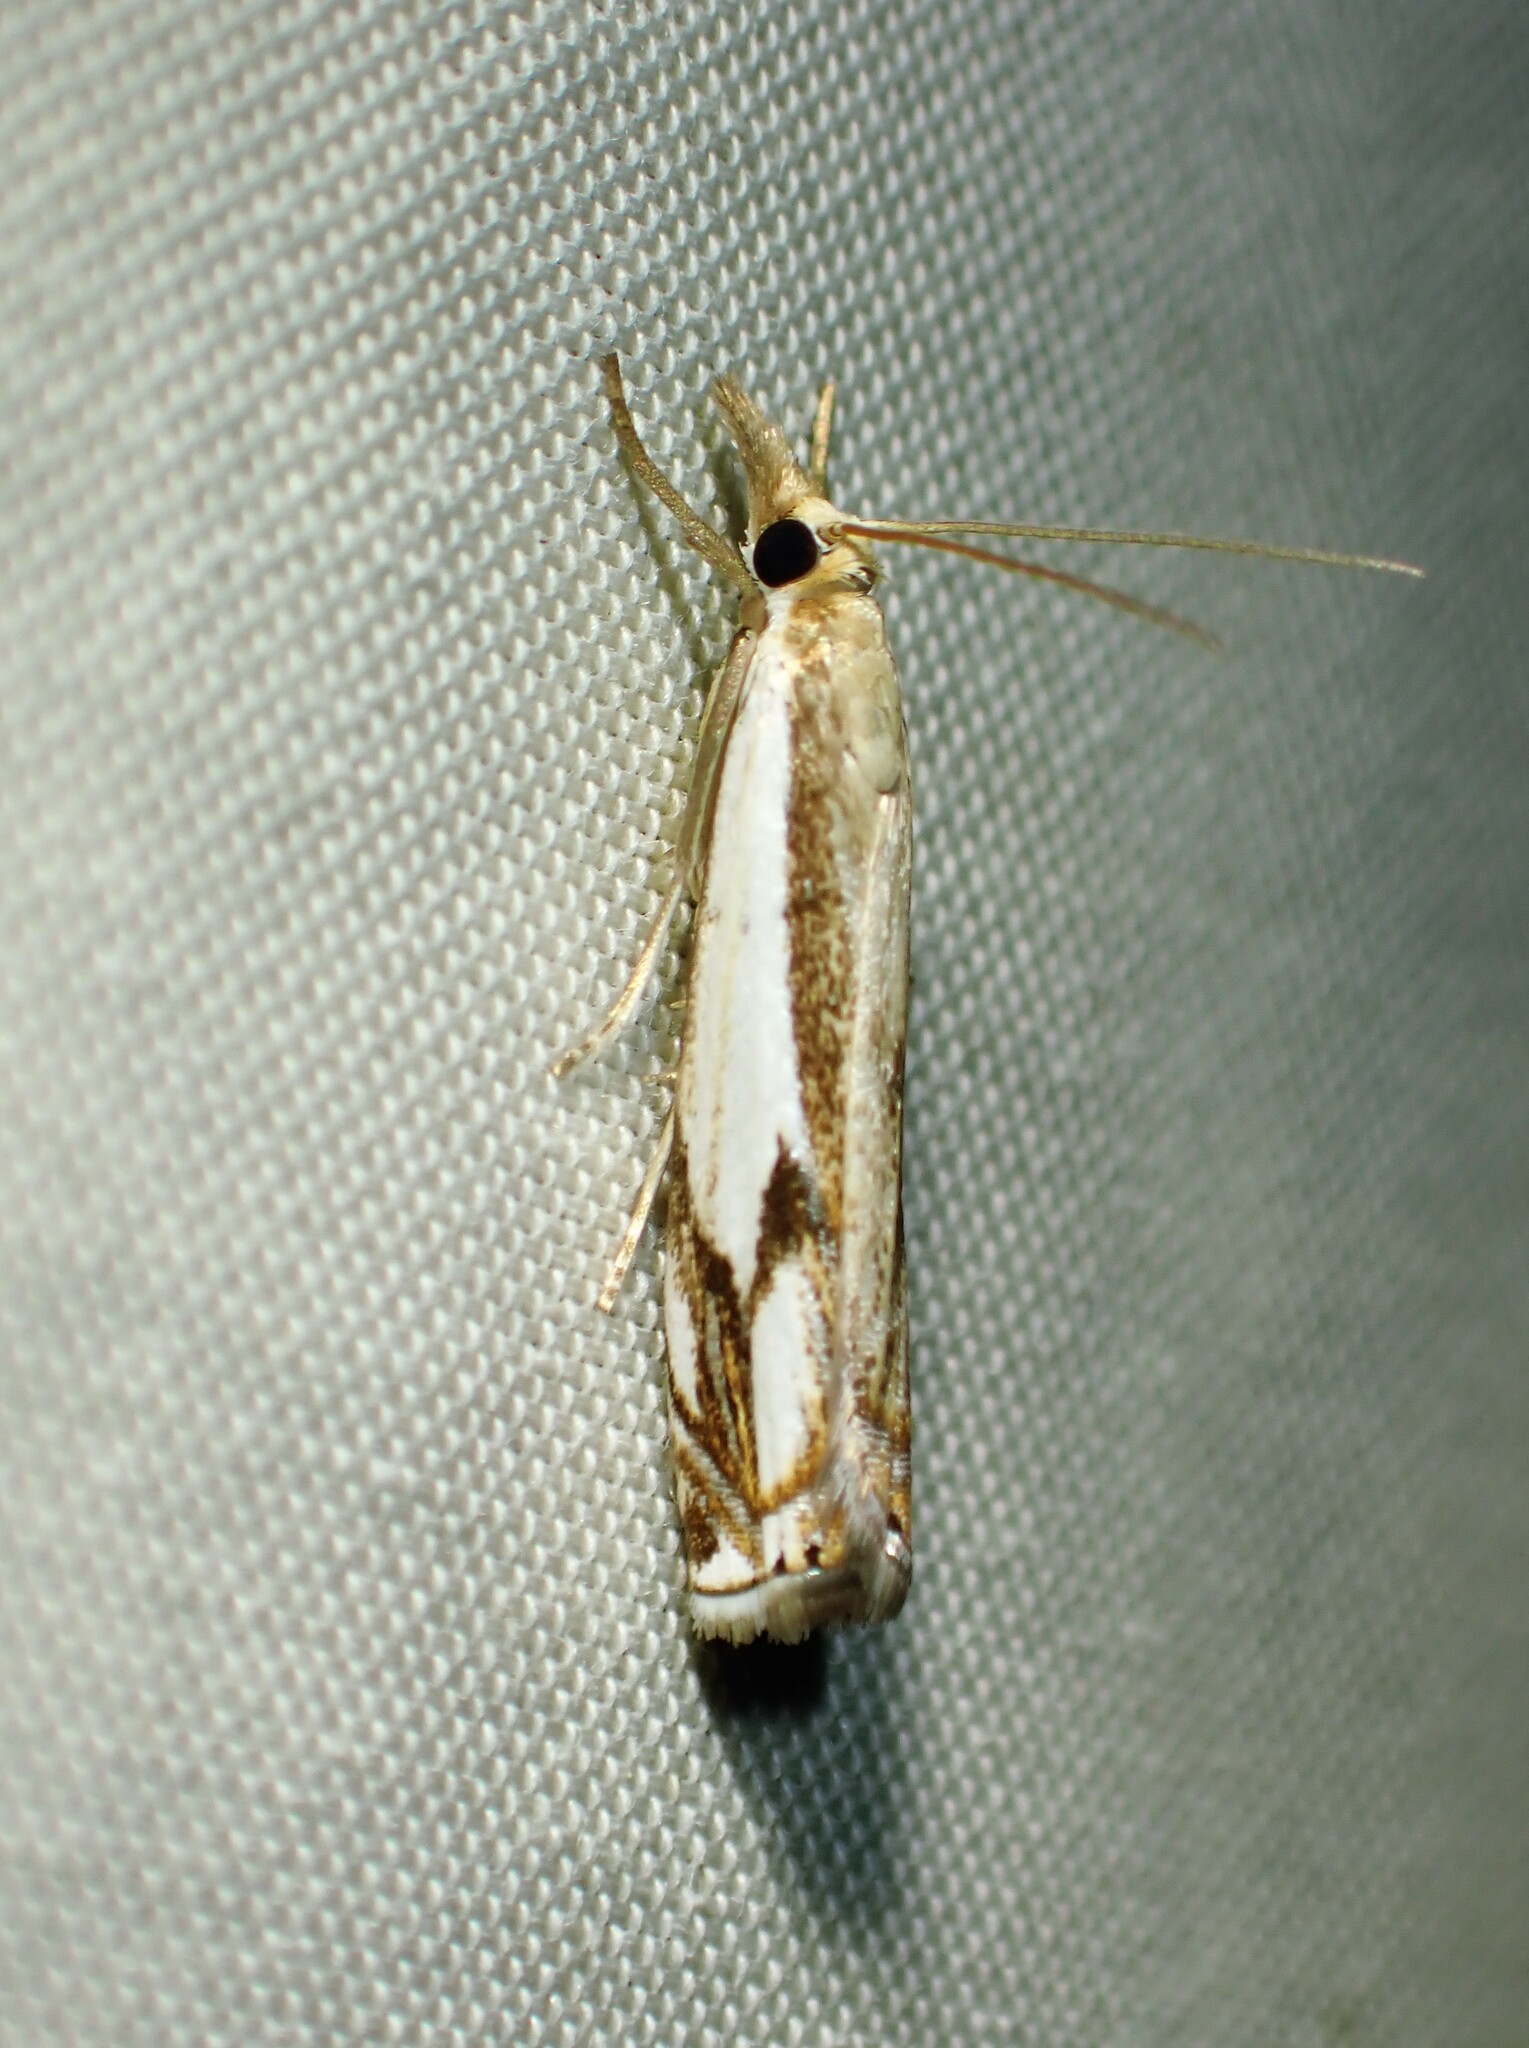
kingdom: Animalia
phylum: Arthropoda
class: Insecta
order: Lepidoptera
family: Crambidae
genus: Crambus
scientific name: Crambus agitatellus
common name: Double-banded grass-veneer
